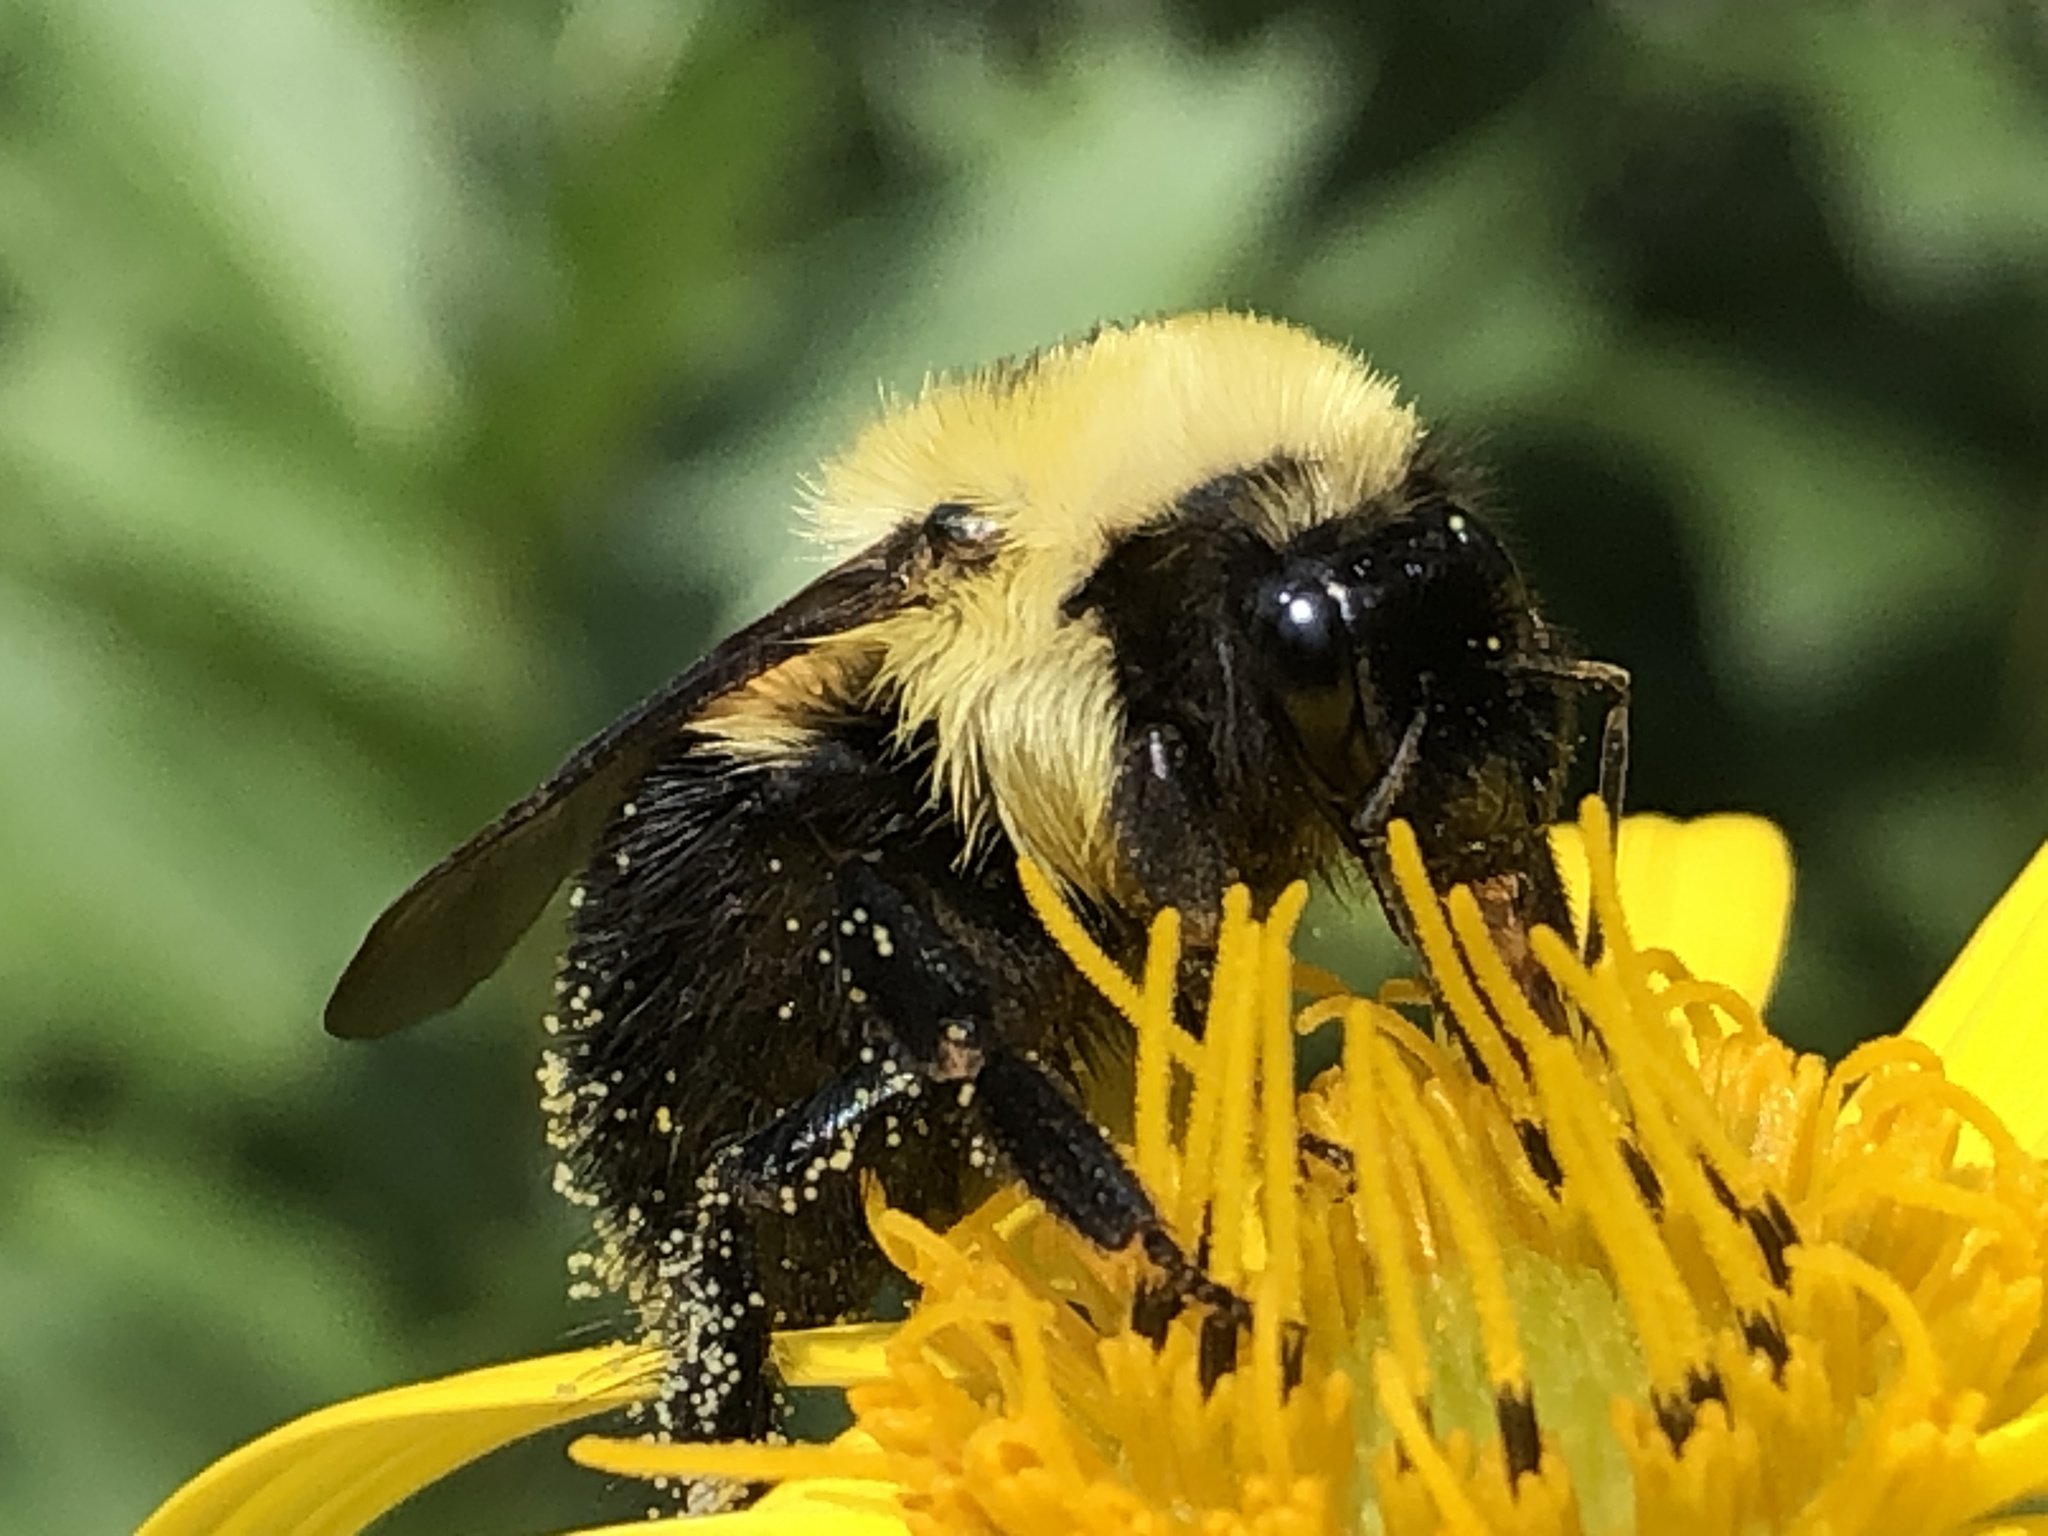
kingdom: Animalia
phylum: Arthropoda
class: Insecta
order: Hymenoptera
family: Apidae
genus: Bombus
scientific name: Bombus bimaculatus
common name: Two-spotted bumble bee
